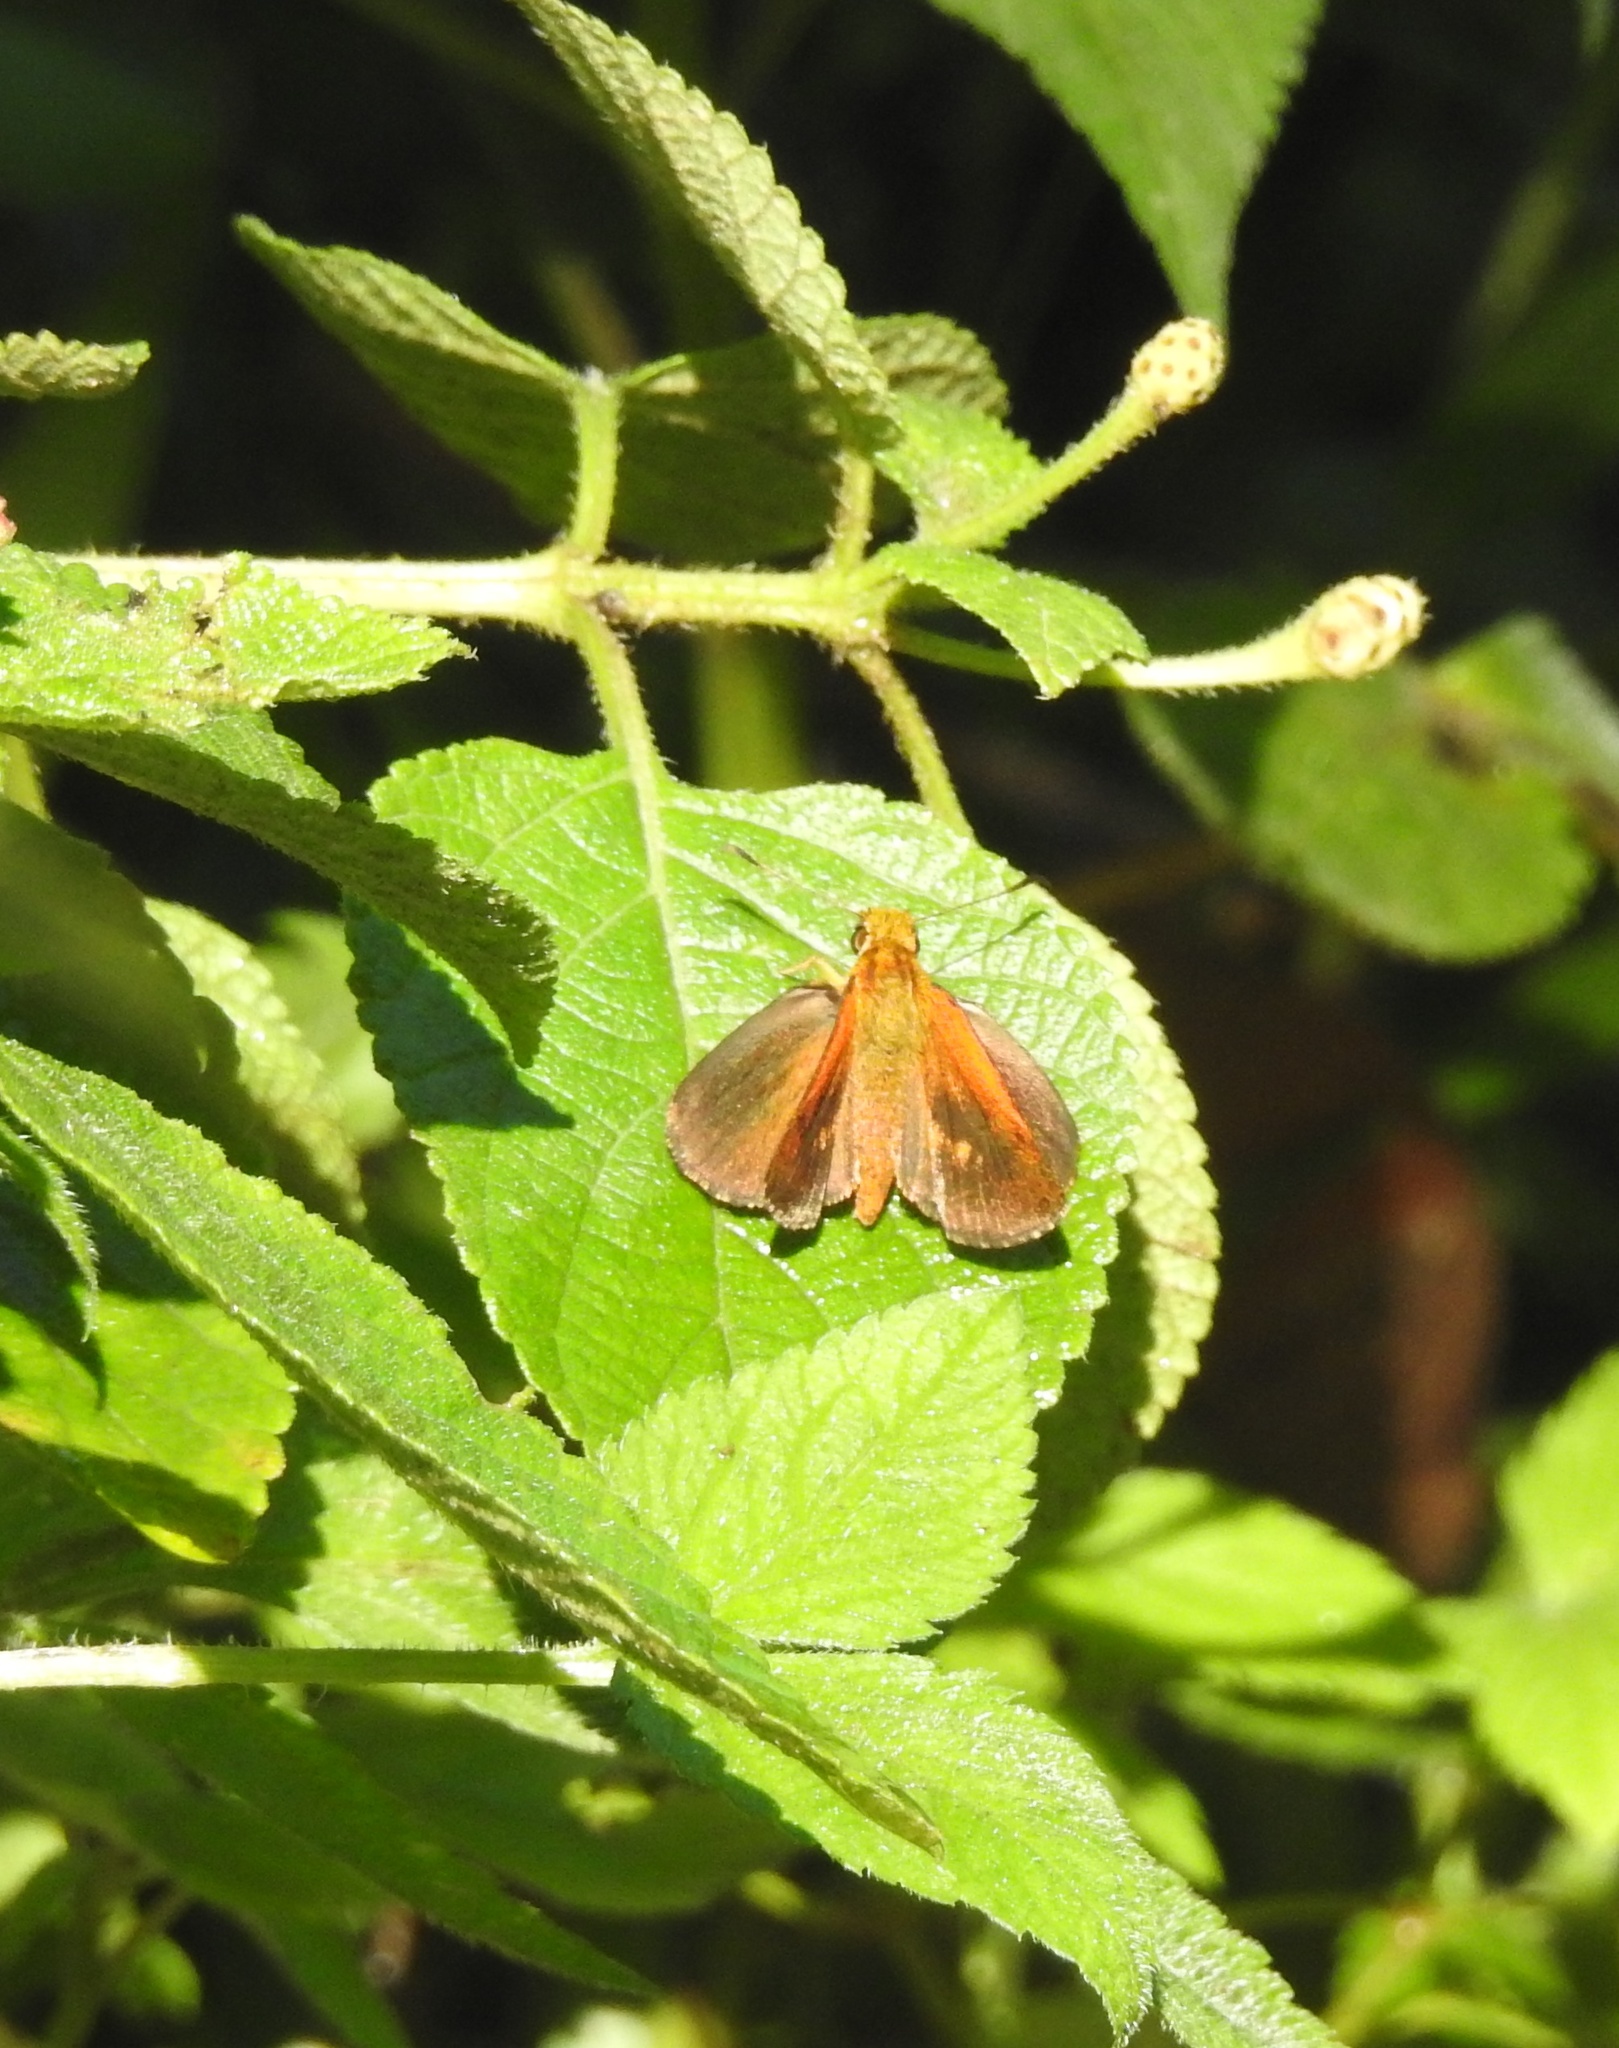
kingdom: Animalia
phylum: Arthropoda
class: Insecta
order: Lepidoptera
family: Hesperiidae
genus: Iambrix
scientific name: Iambrix salsala
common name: Chestnut bob
